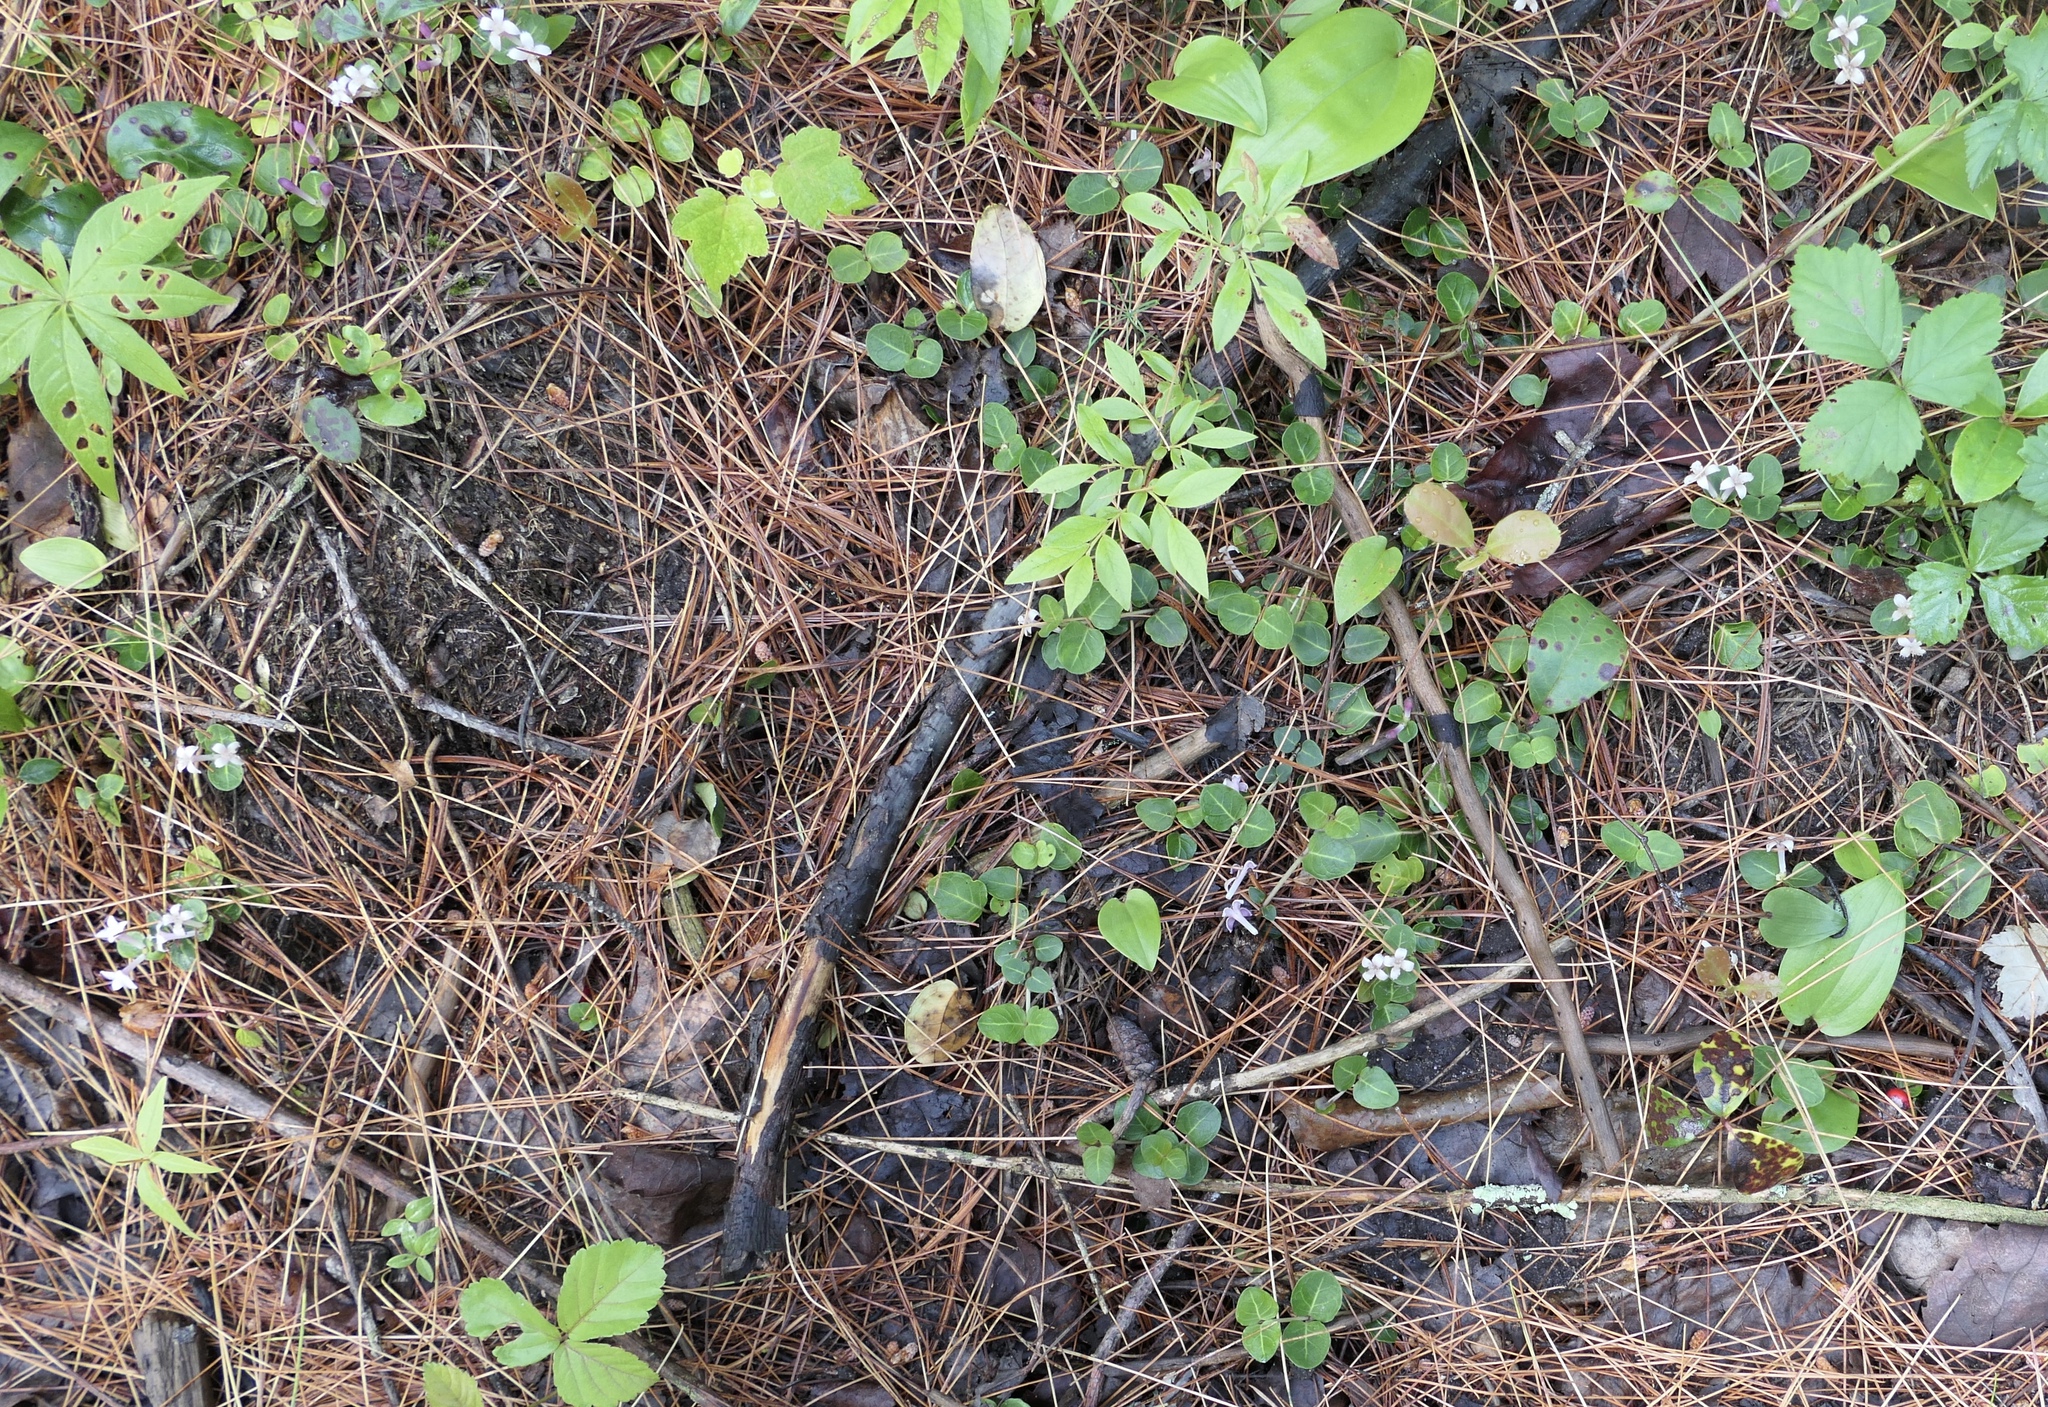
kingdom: Plantae
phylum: Tracheophyta
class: Magnoliopsida
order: Gentianales
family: Rubiaceae
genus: Mitchella
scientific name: Mitchella repens
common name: Partridge-berry
